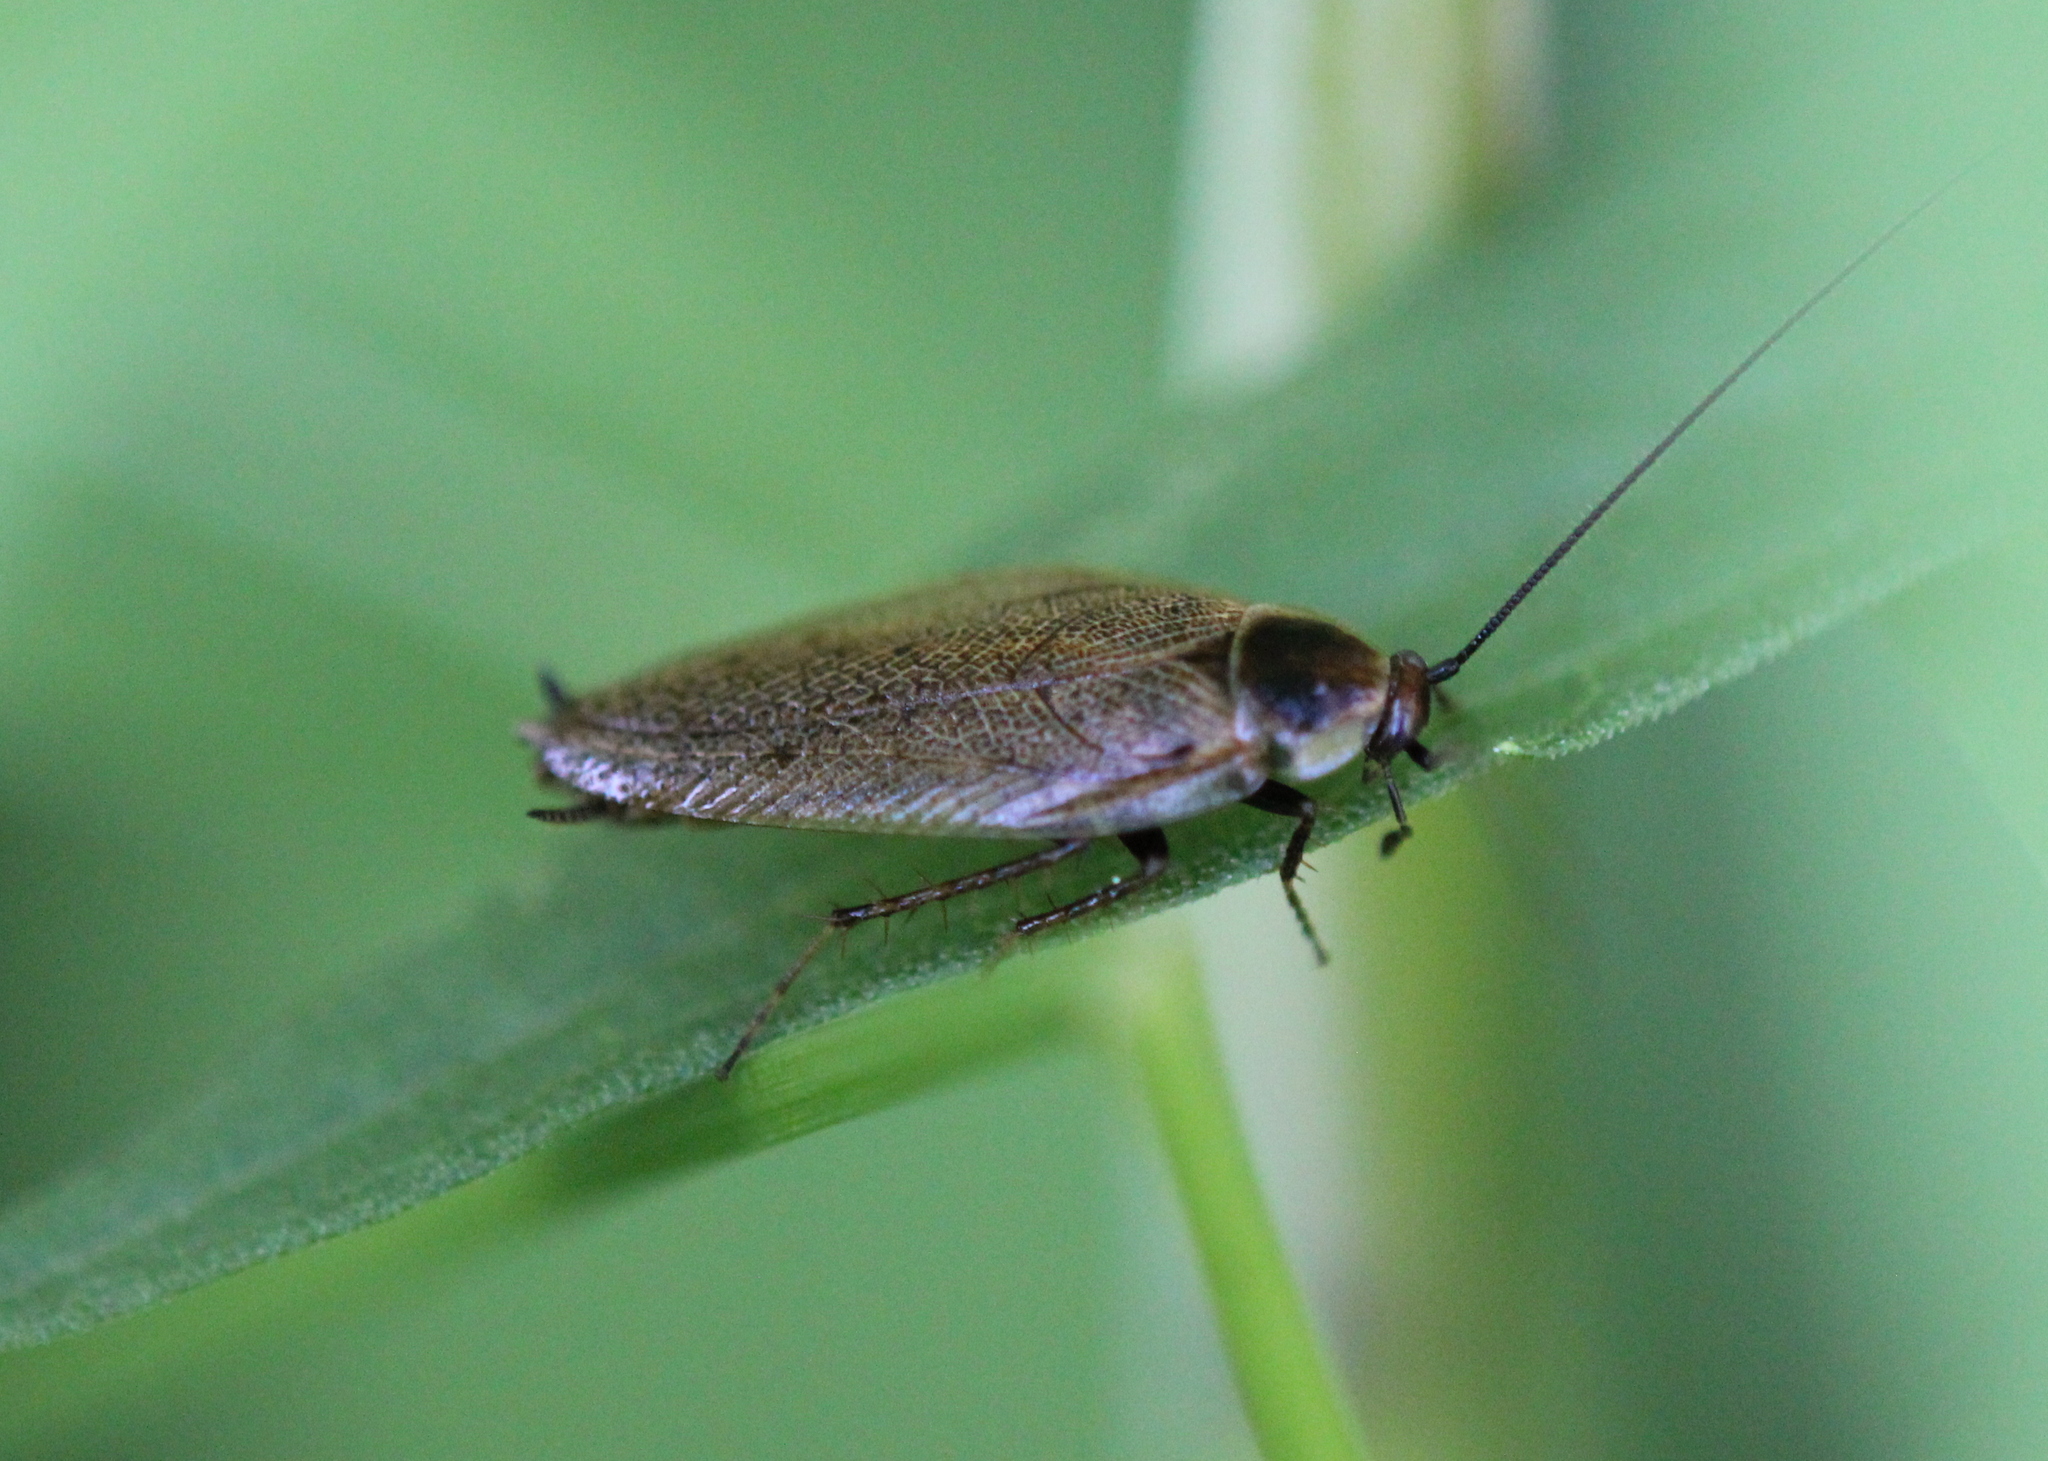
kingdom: Animalia
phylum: Arthropoda
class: Insecta
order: Blattodea
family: Ectobiidae
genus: Ectobius
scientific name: Ectobius lapponicus
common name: Dusky cockroach
